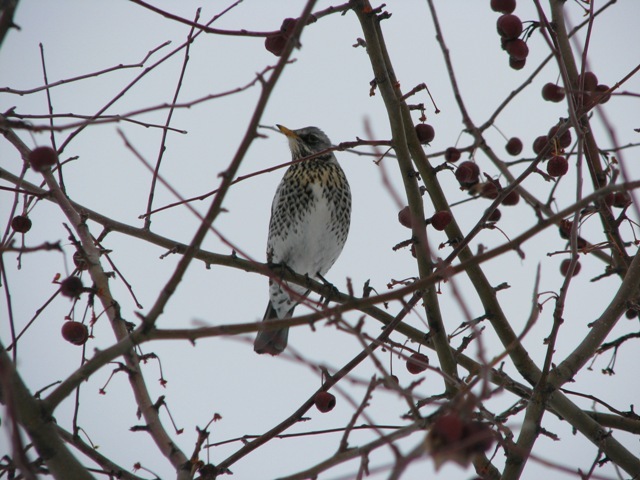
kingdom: Animalia
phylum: Chordata
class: Aves
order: Passeriformes
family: Turdidae
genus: Turdus
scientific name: Turdus pilaris
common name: Fieldfare
